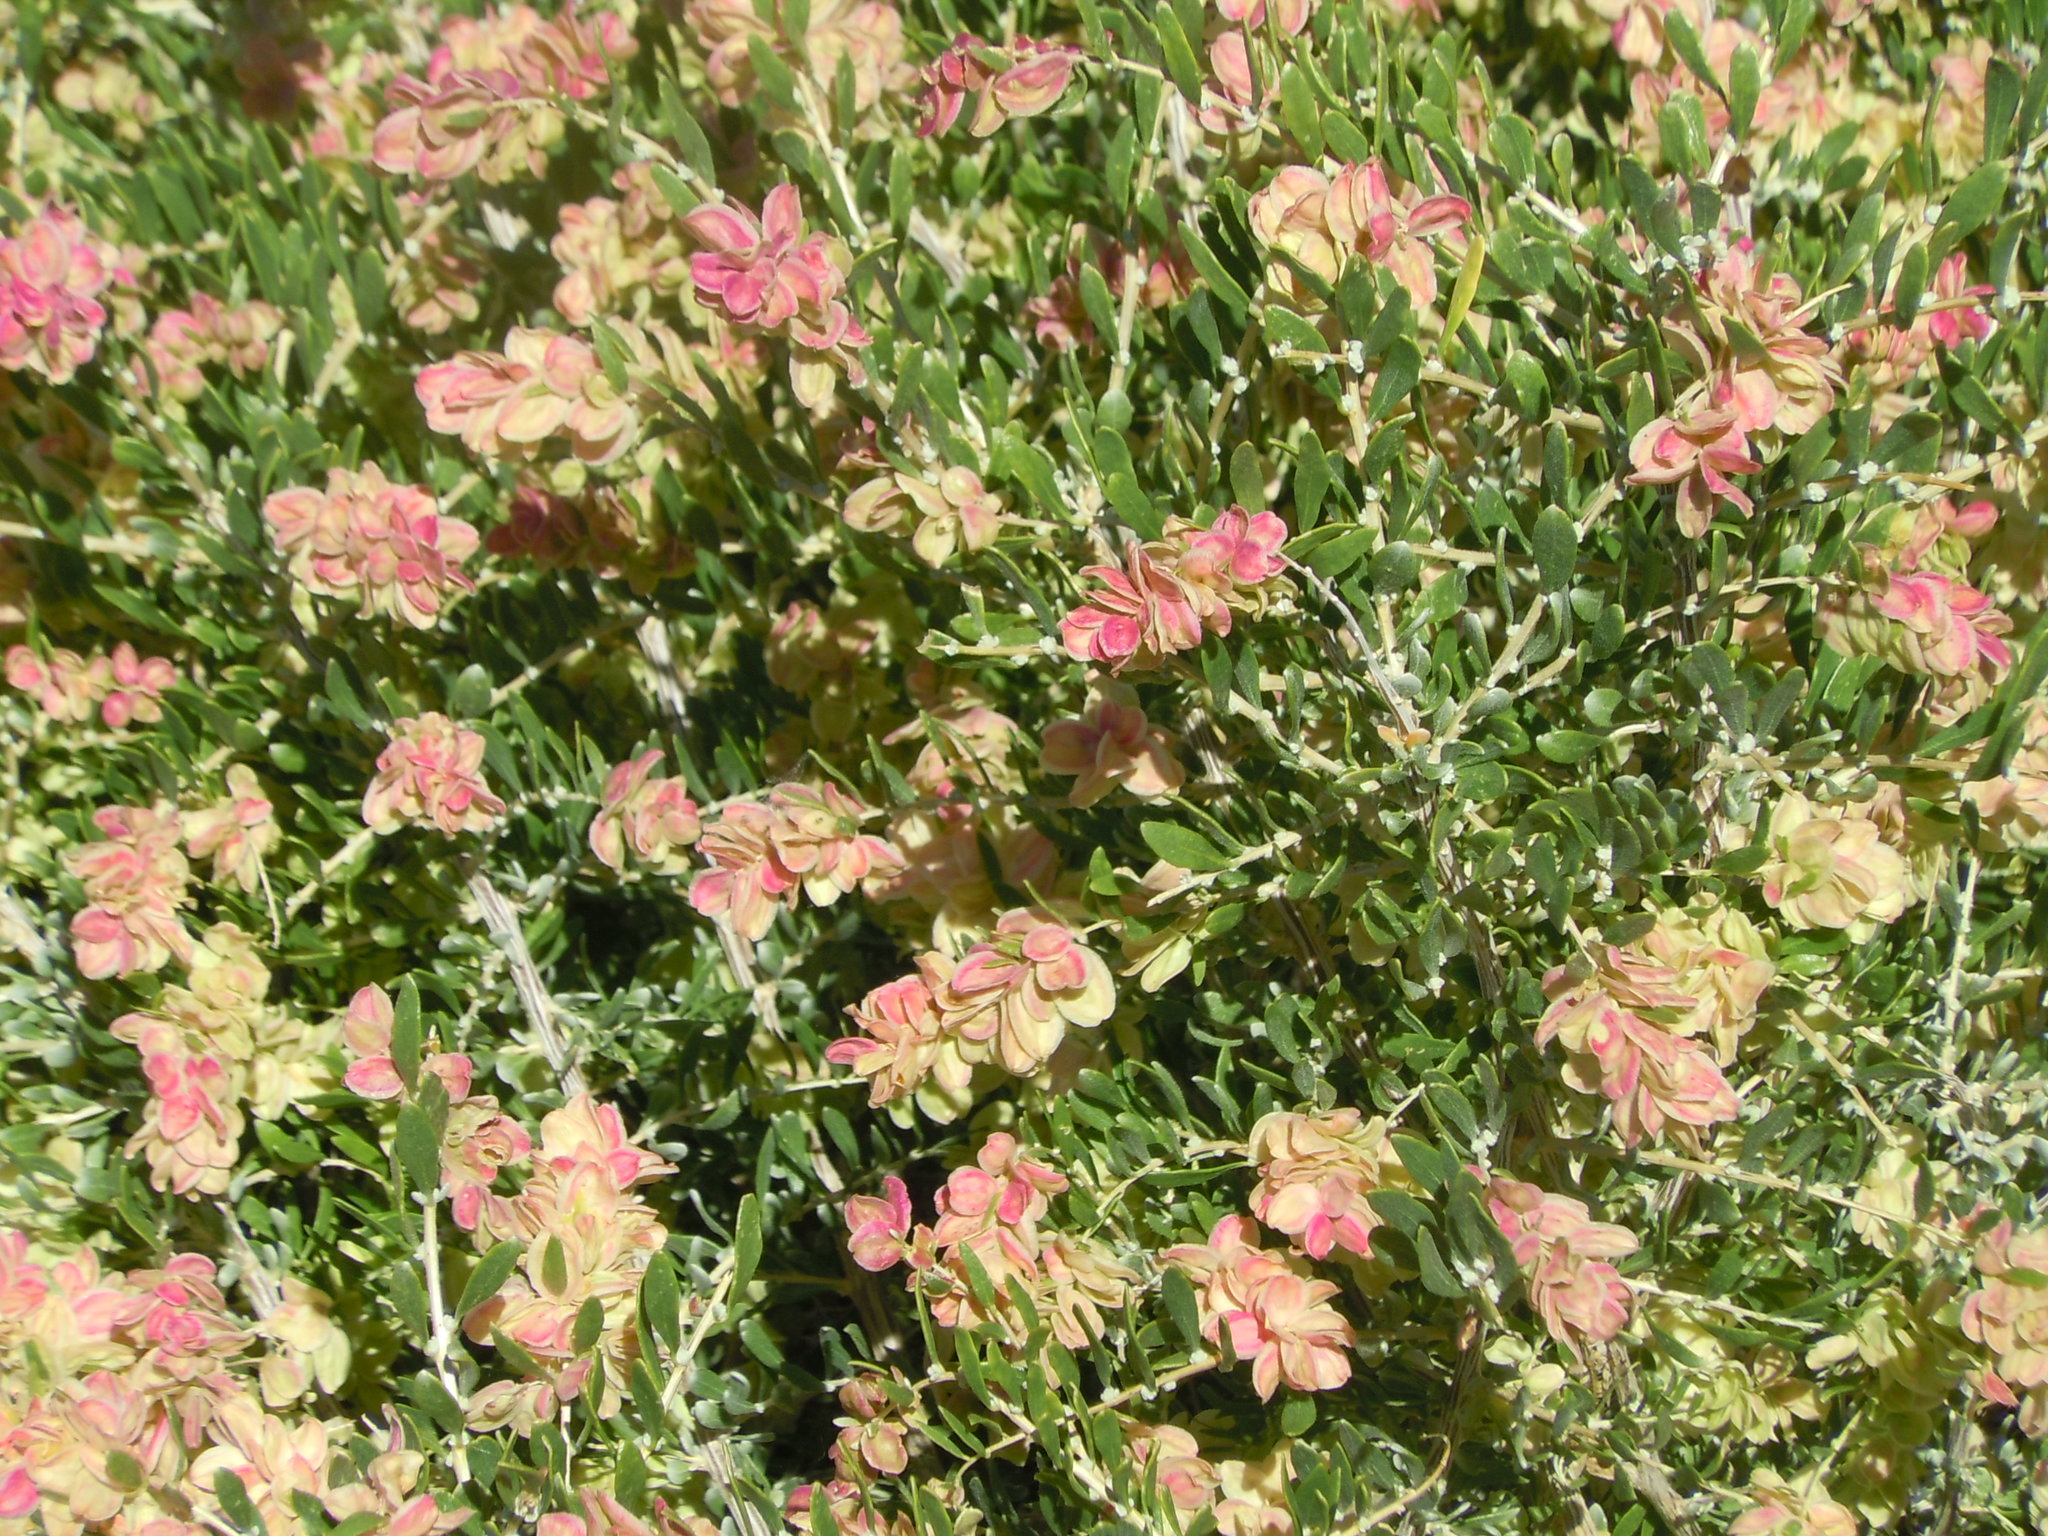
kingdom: Plantae
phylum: Tracheophyta
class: Magnoliopsida
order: Caryophyllales
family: Amaranthaceae
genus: Grayia
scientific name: Grayia spinosa
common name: Spiny hopsage
